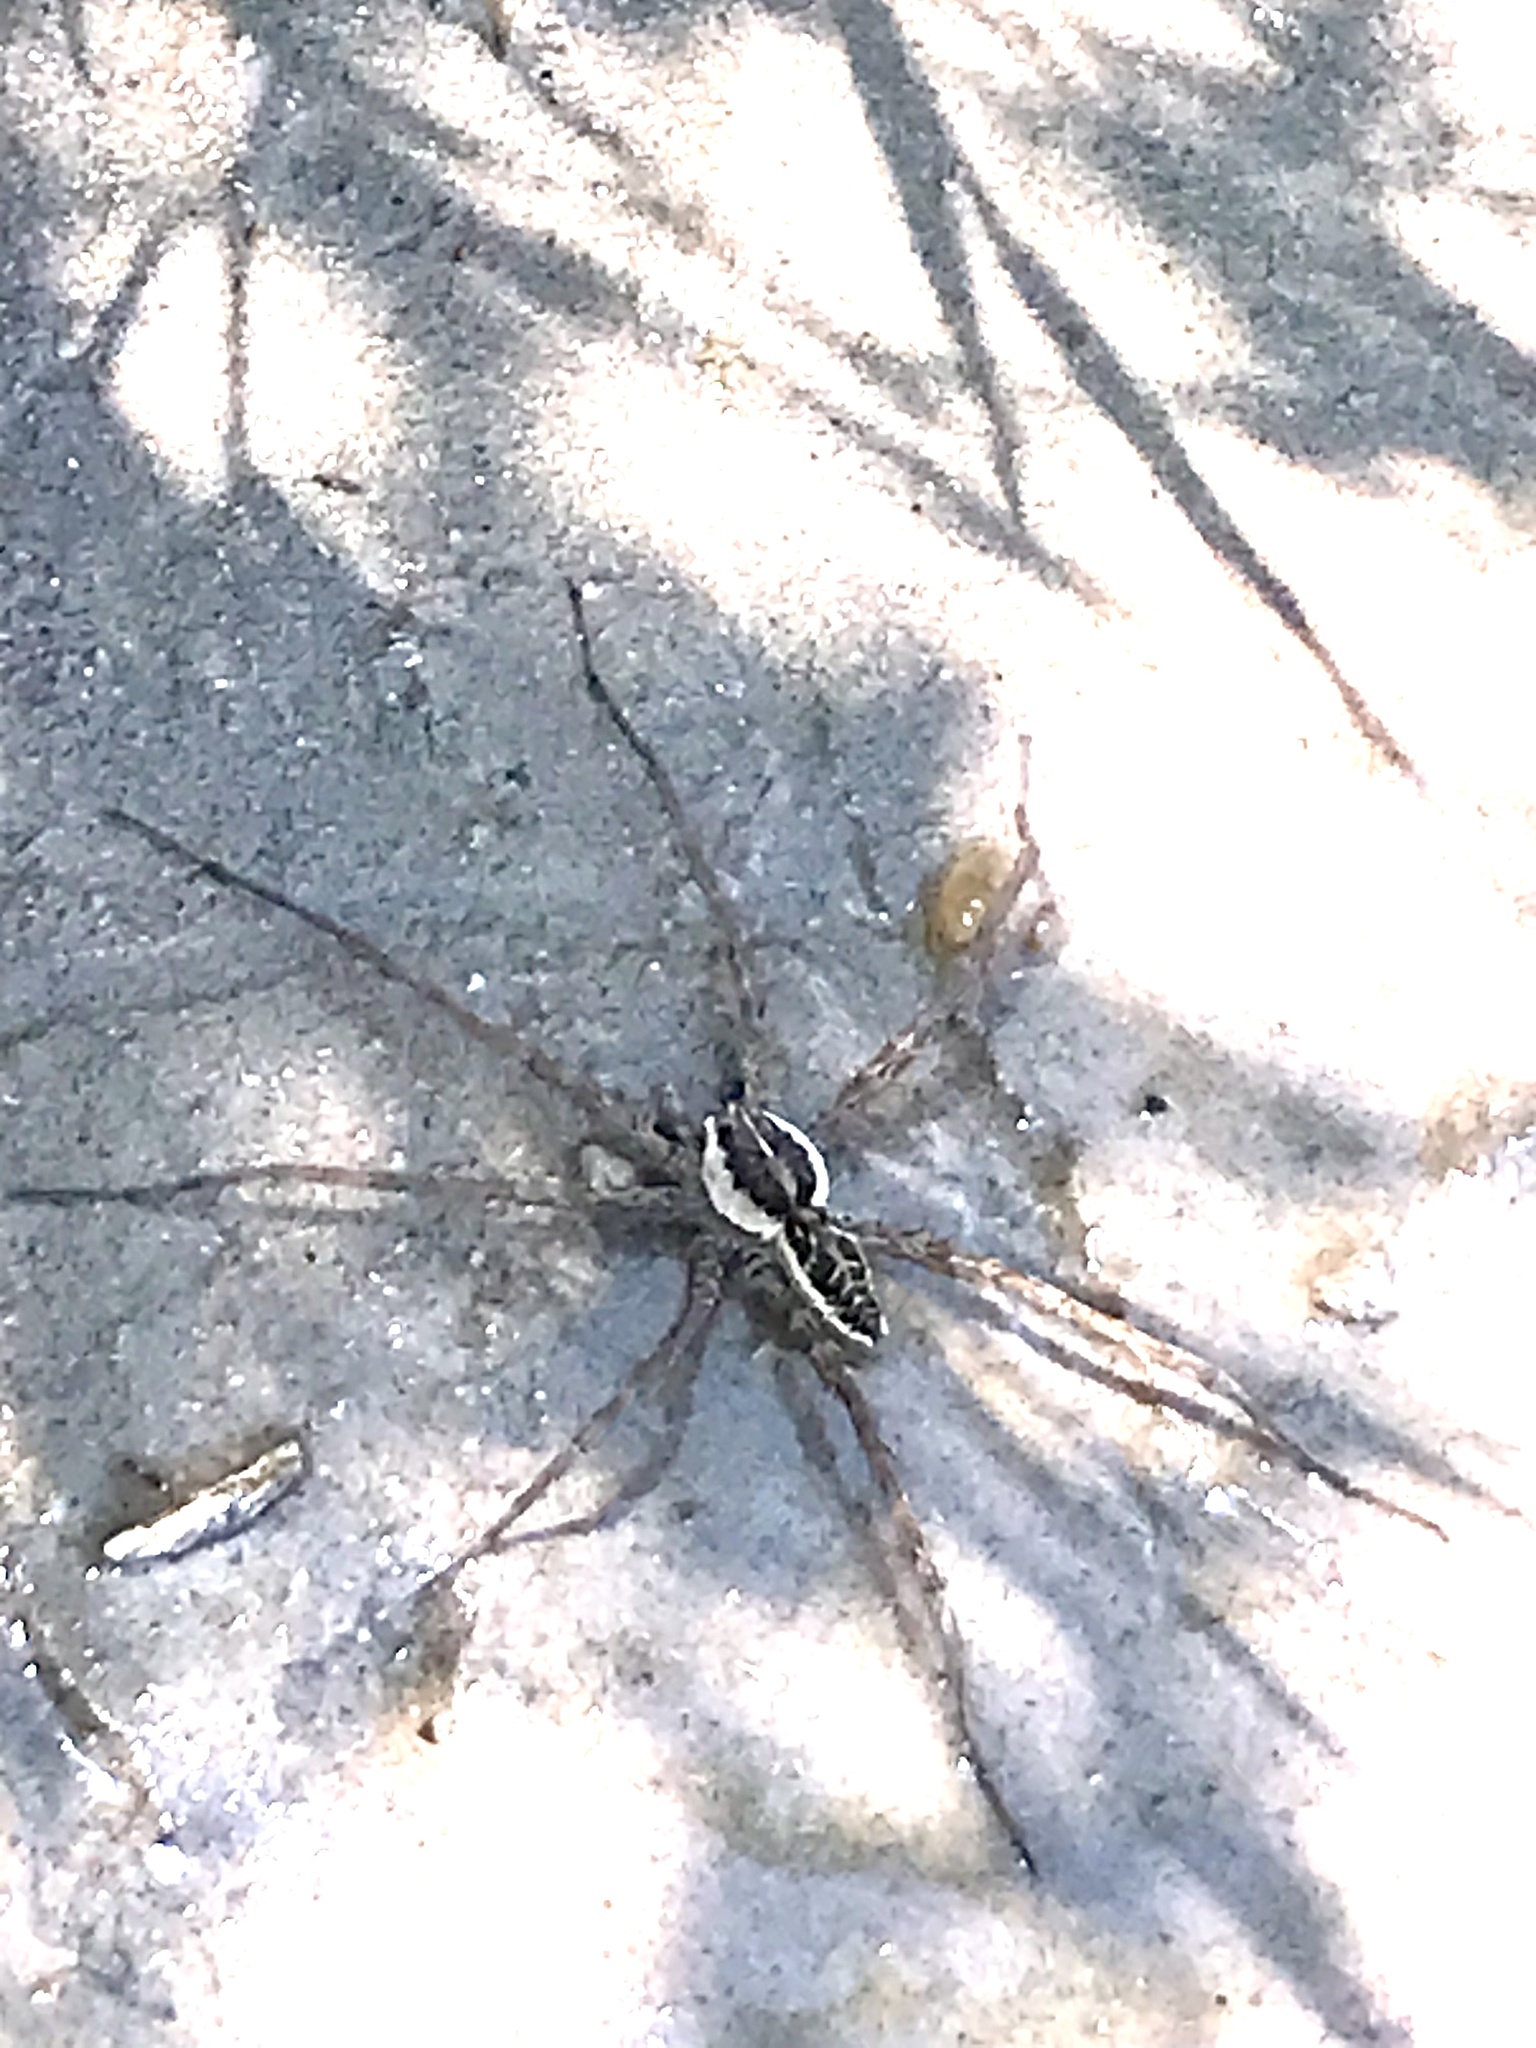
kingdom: Animalia
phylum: Arthropoda
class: Arachnida
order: Araneae
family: Pisauridae
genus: Dolomedes
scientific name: Dolomedes gertschi
